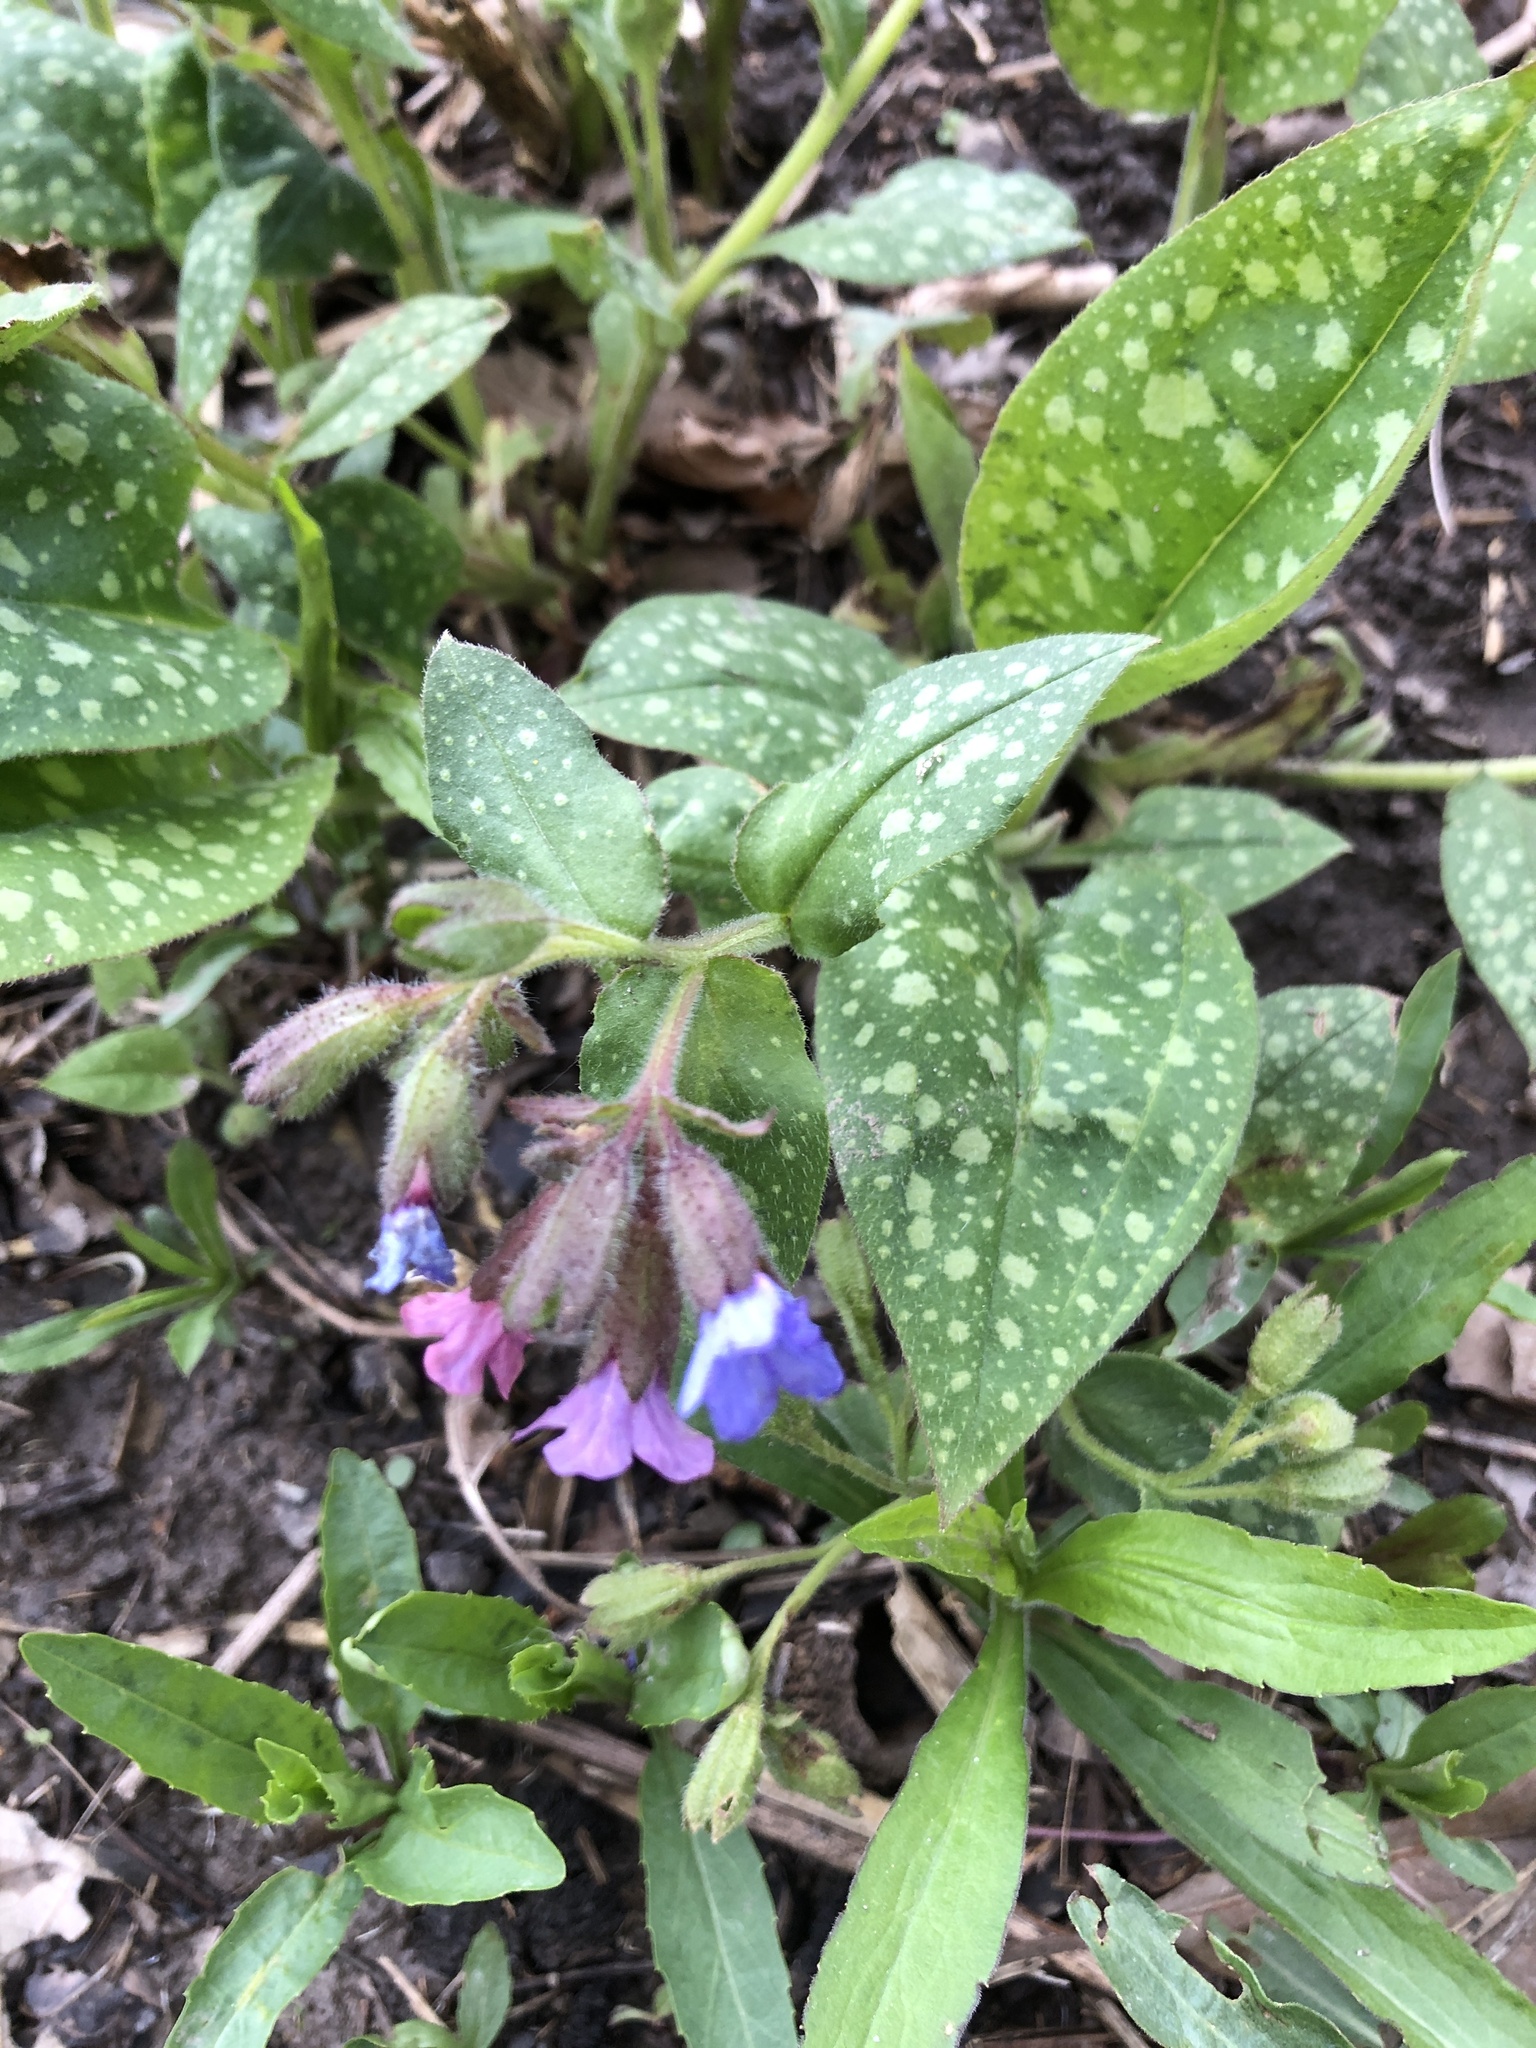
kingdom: Plantae
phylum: Tracheophyta
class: Magnoliopsida
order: Boraginales
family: Boraginaceae
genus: Pulmonaria
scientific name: Pulmonaria
